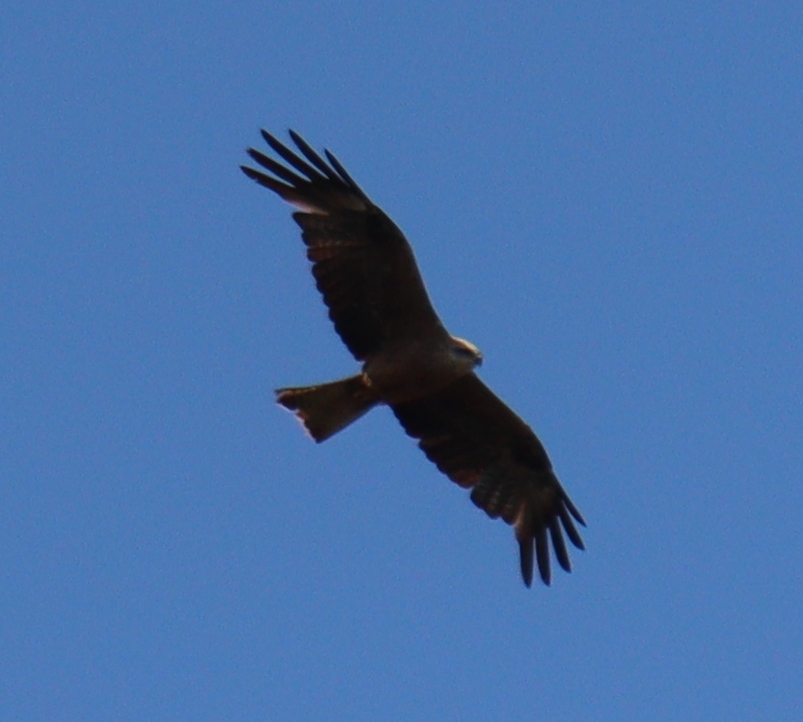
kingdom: Animalia
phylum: Chordata
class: Aves
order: Accipitriformes
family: Accipitridae
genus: Milvus
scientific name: Milvus migrans
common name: Black kite
